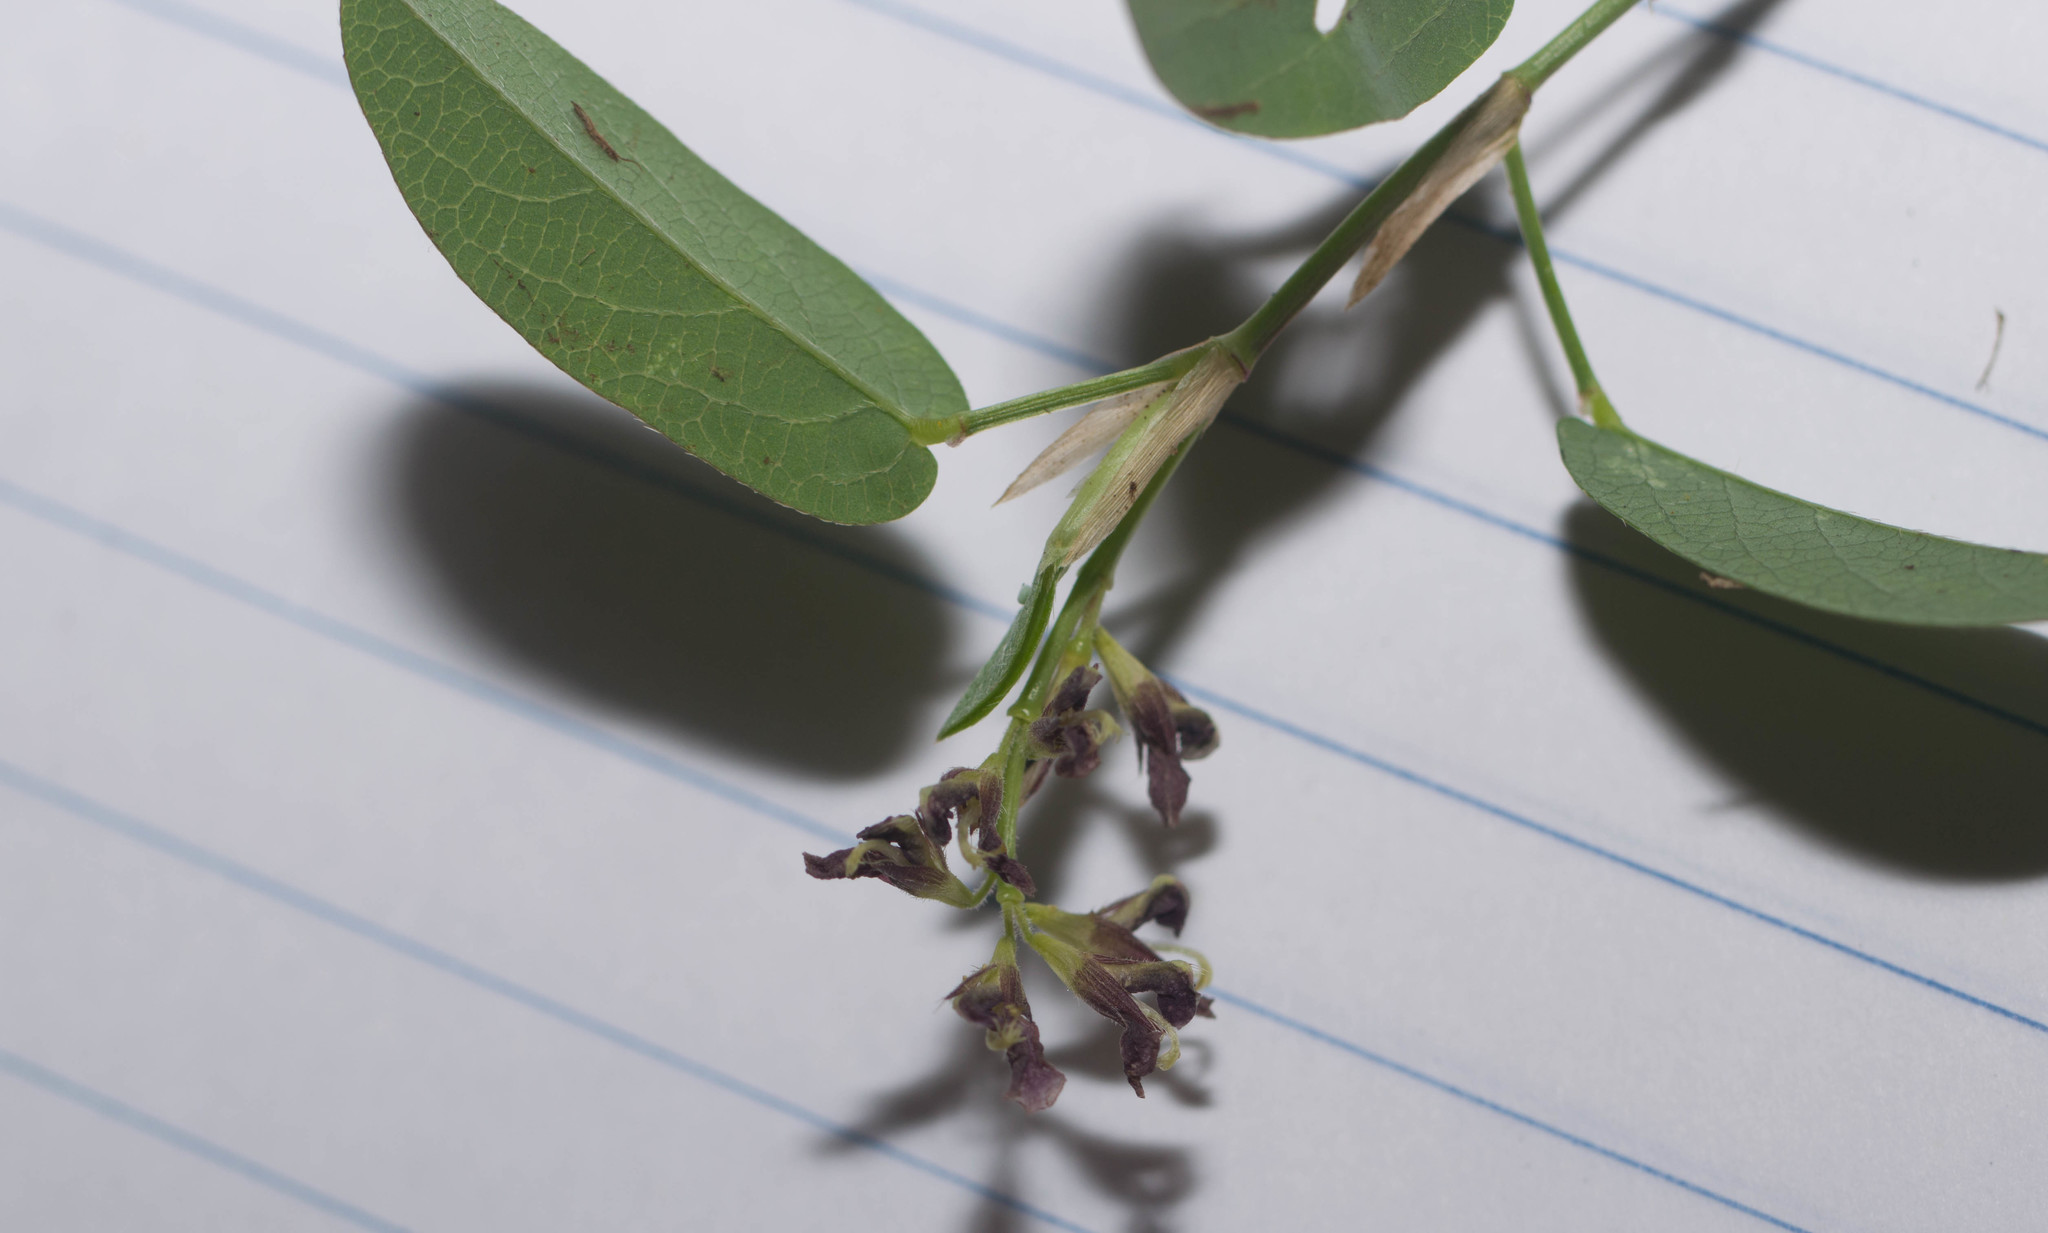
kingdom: Plantae
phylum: Tracheophyta
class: Magnoliopsida
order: Fabales
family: Fabaceae
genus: Alysicarpus
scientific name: Alysicarpus vaginalis
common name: White moneywort
